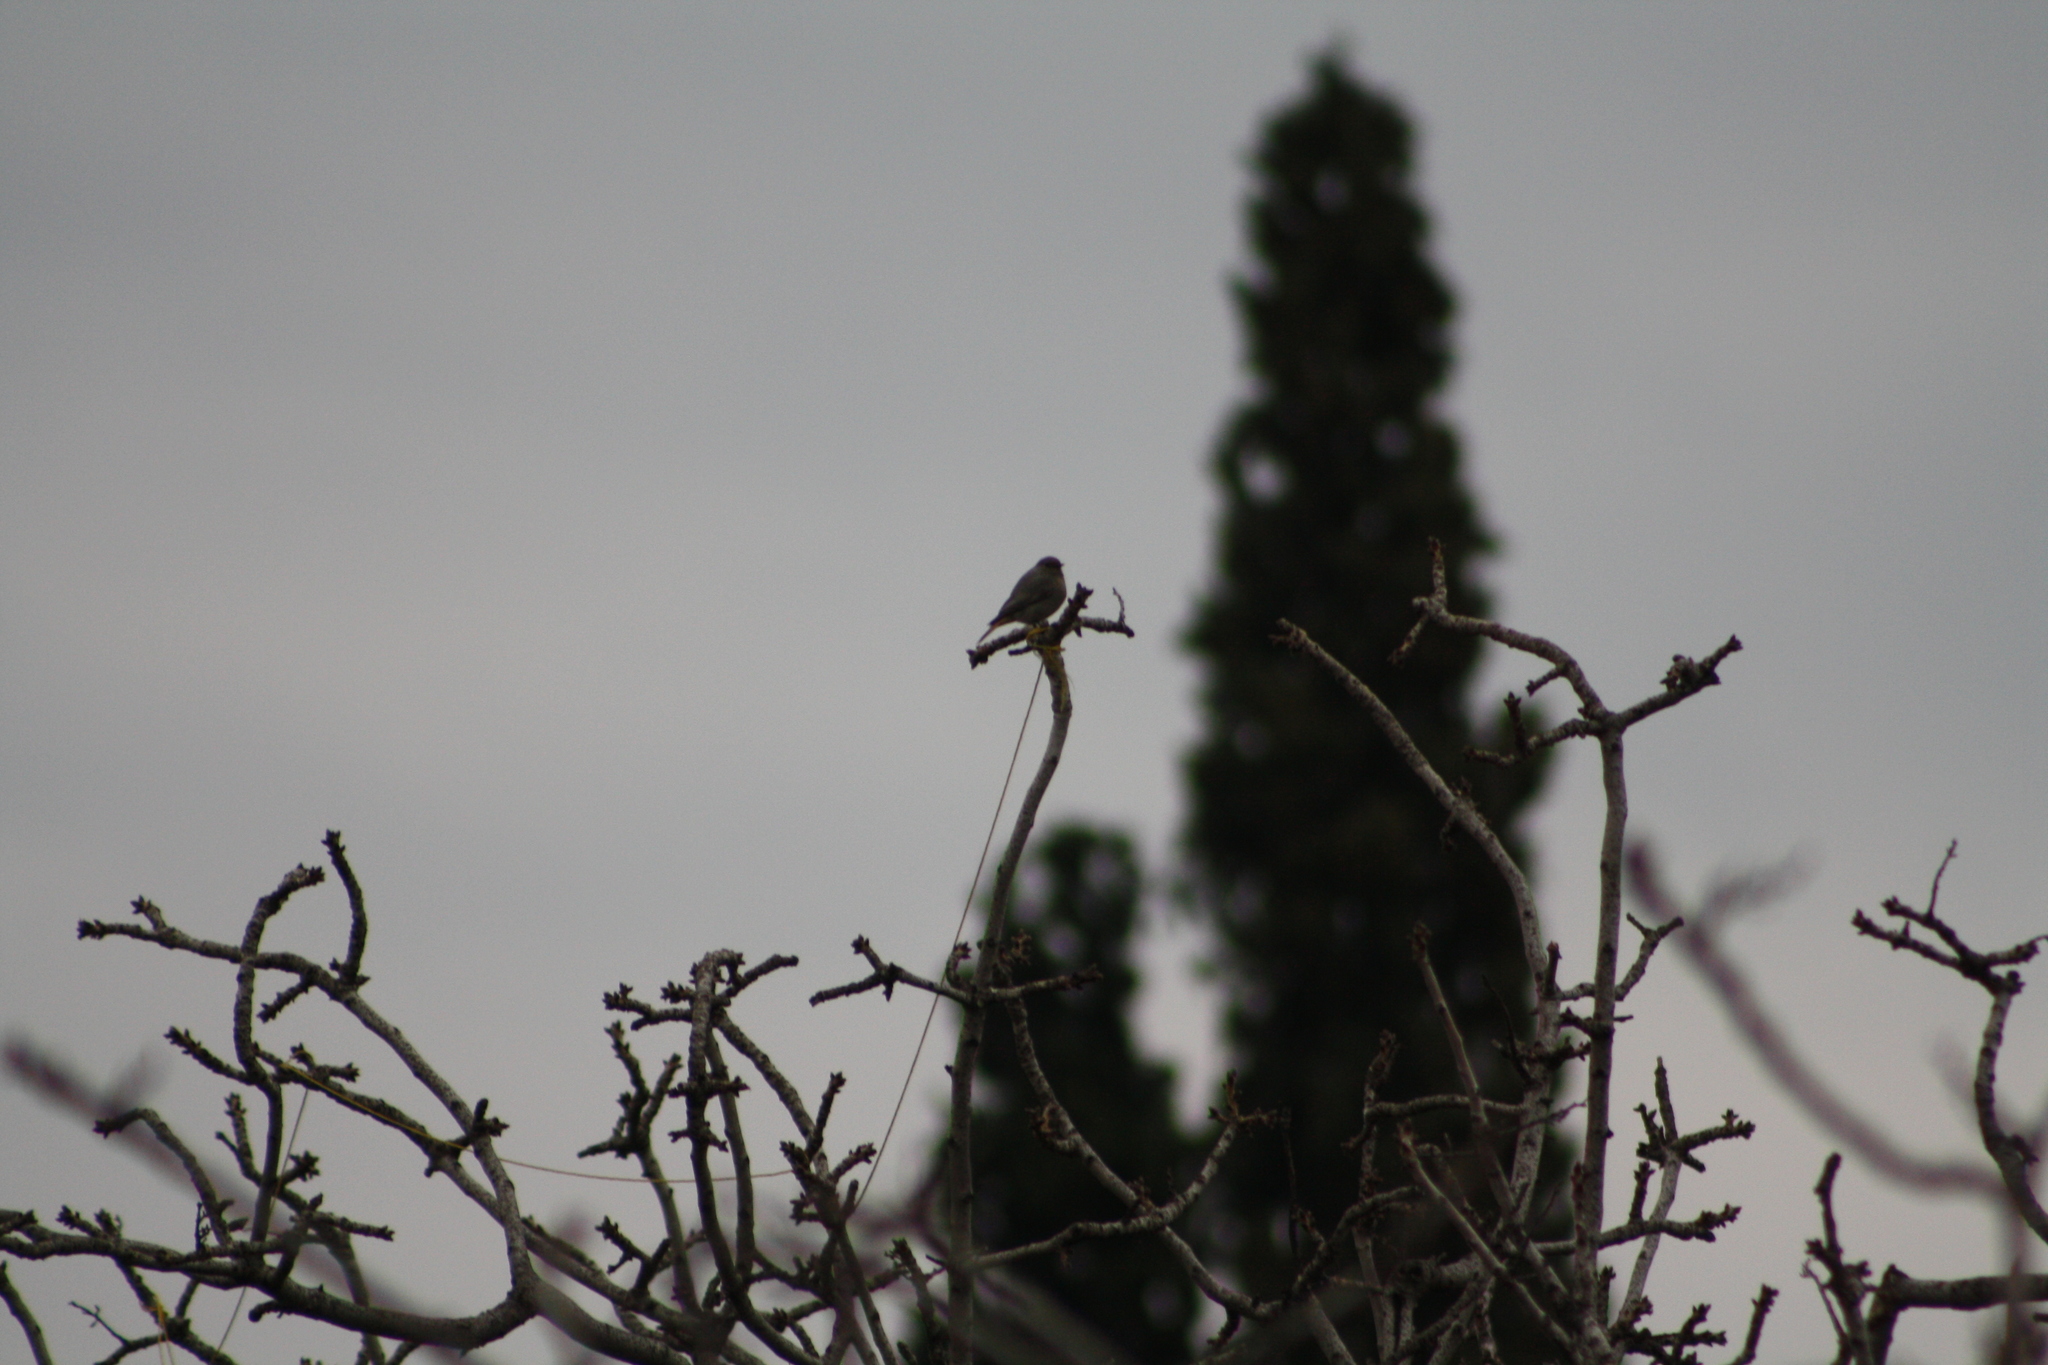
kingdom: Animalia
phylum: Chordata
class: Aves
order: Passeriformes
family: Muscicapidae
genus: Phoenicurus
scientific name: Phoenicurus ochruros
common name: Black redstart
